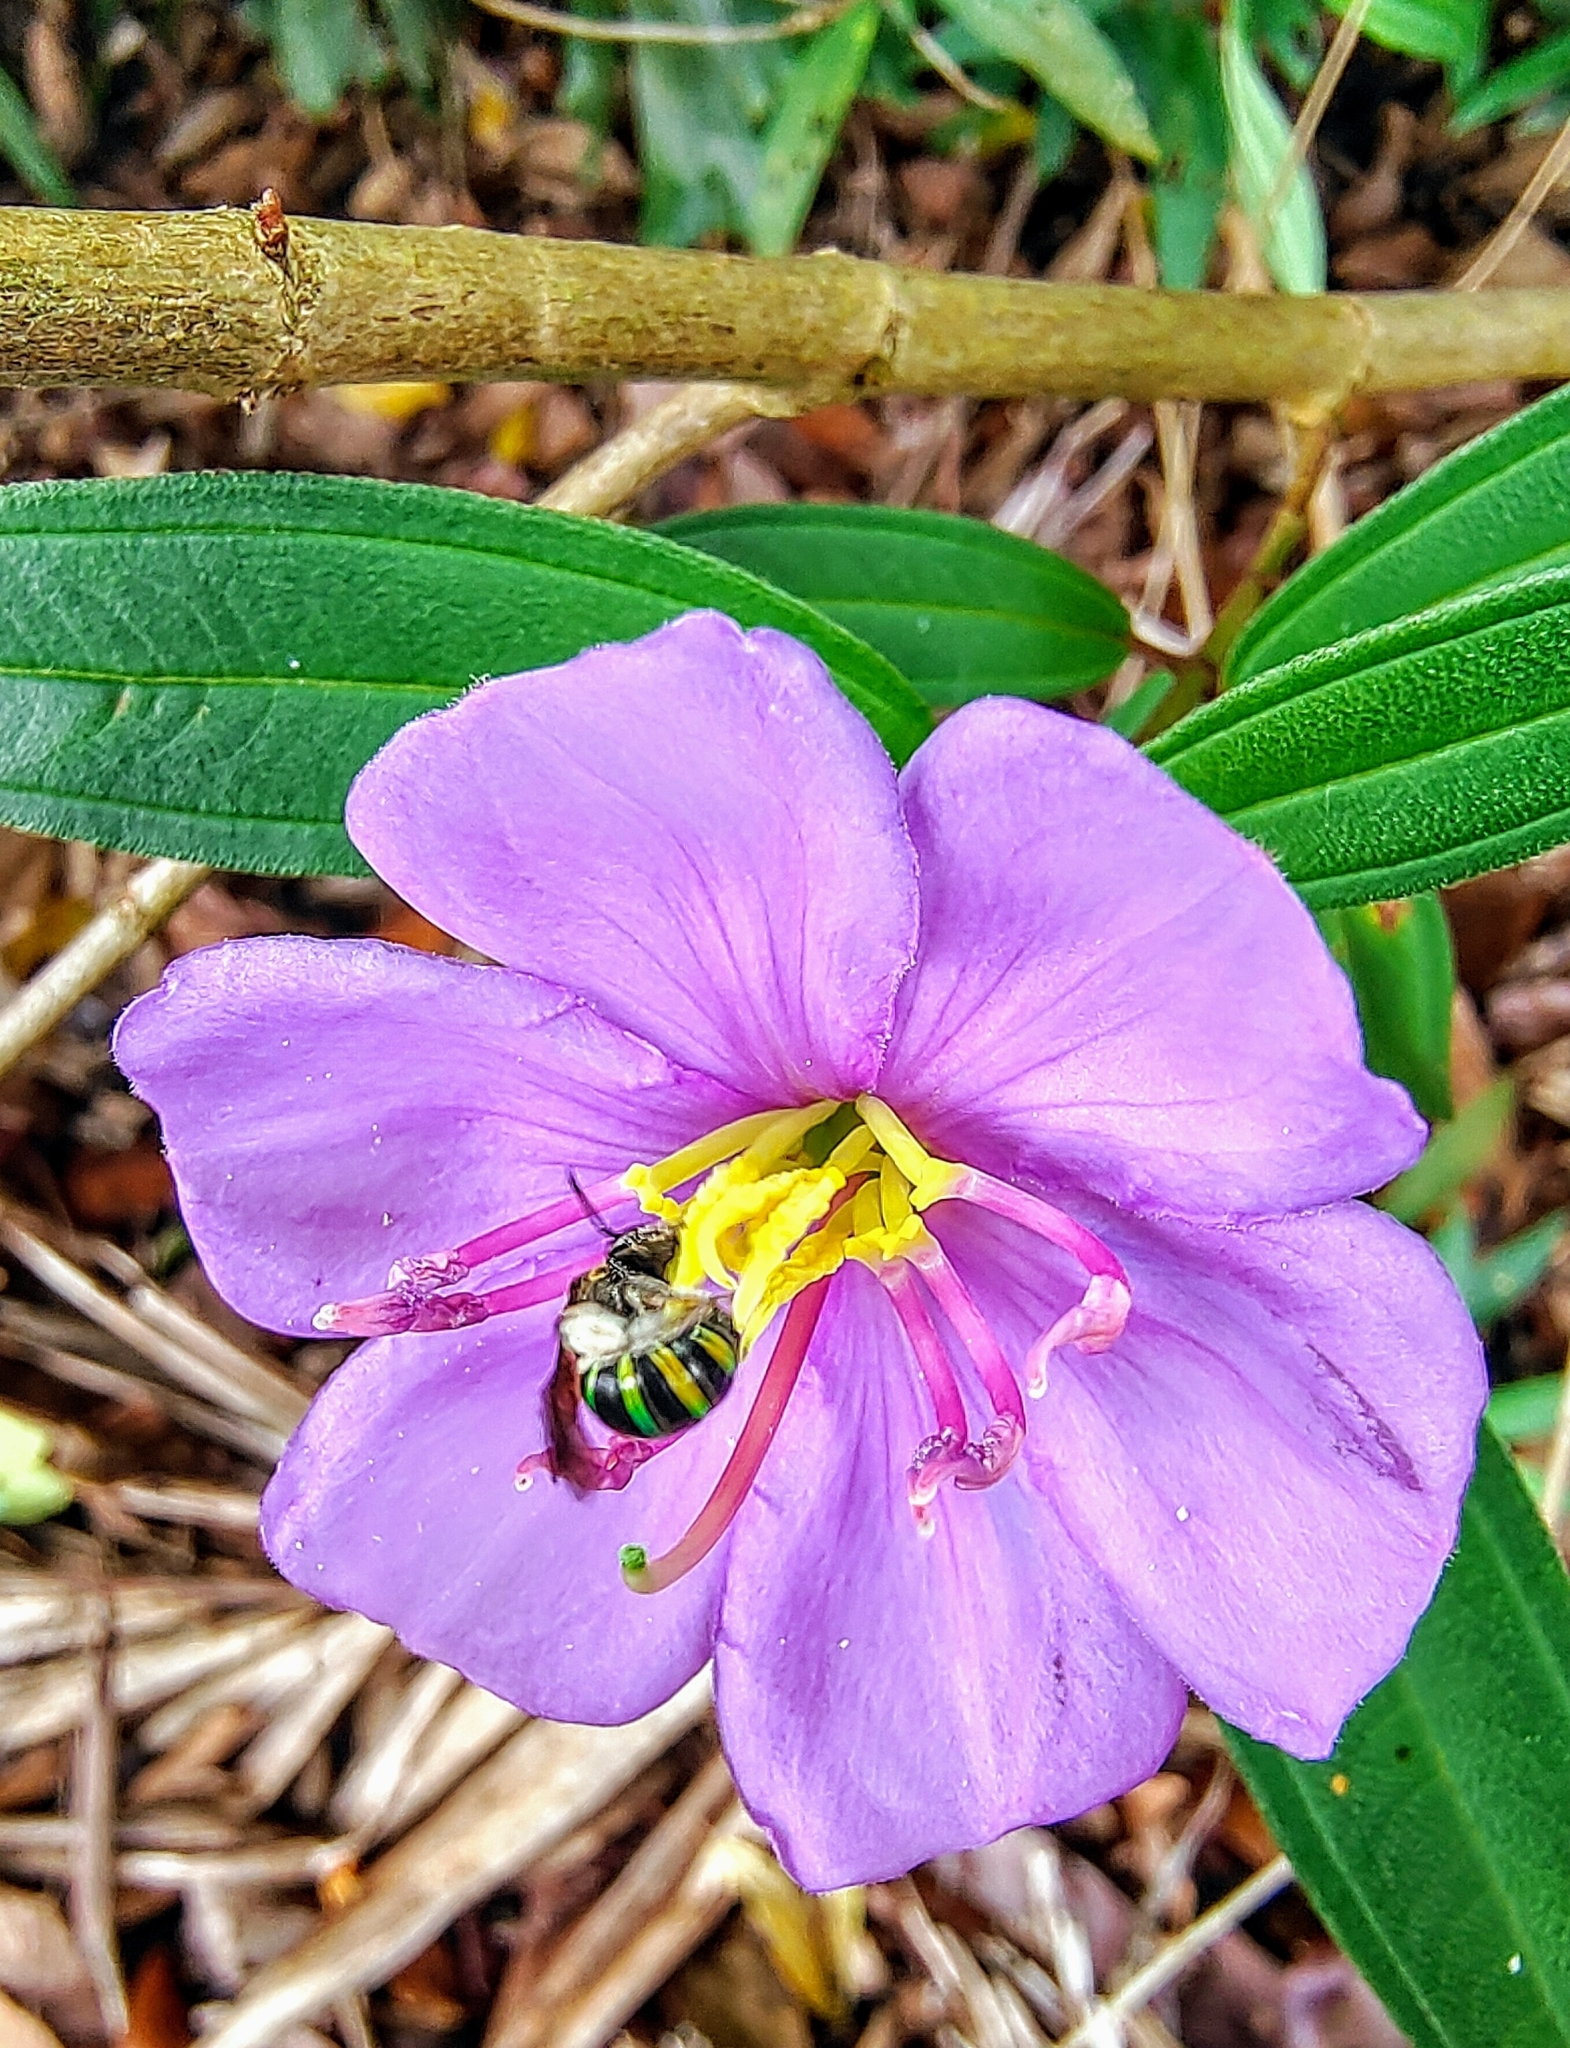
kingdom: Animalia
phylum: Arthropoda
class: Insecta
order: Hymenoptera
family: Halictidae
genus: Nomia
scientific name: Nomia strigata
